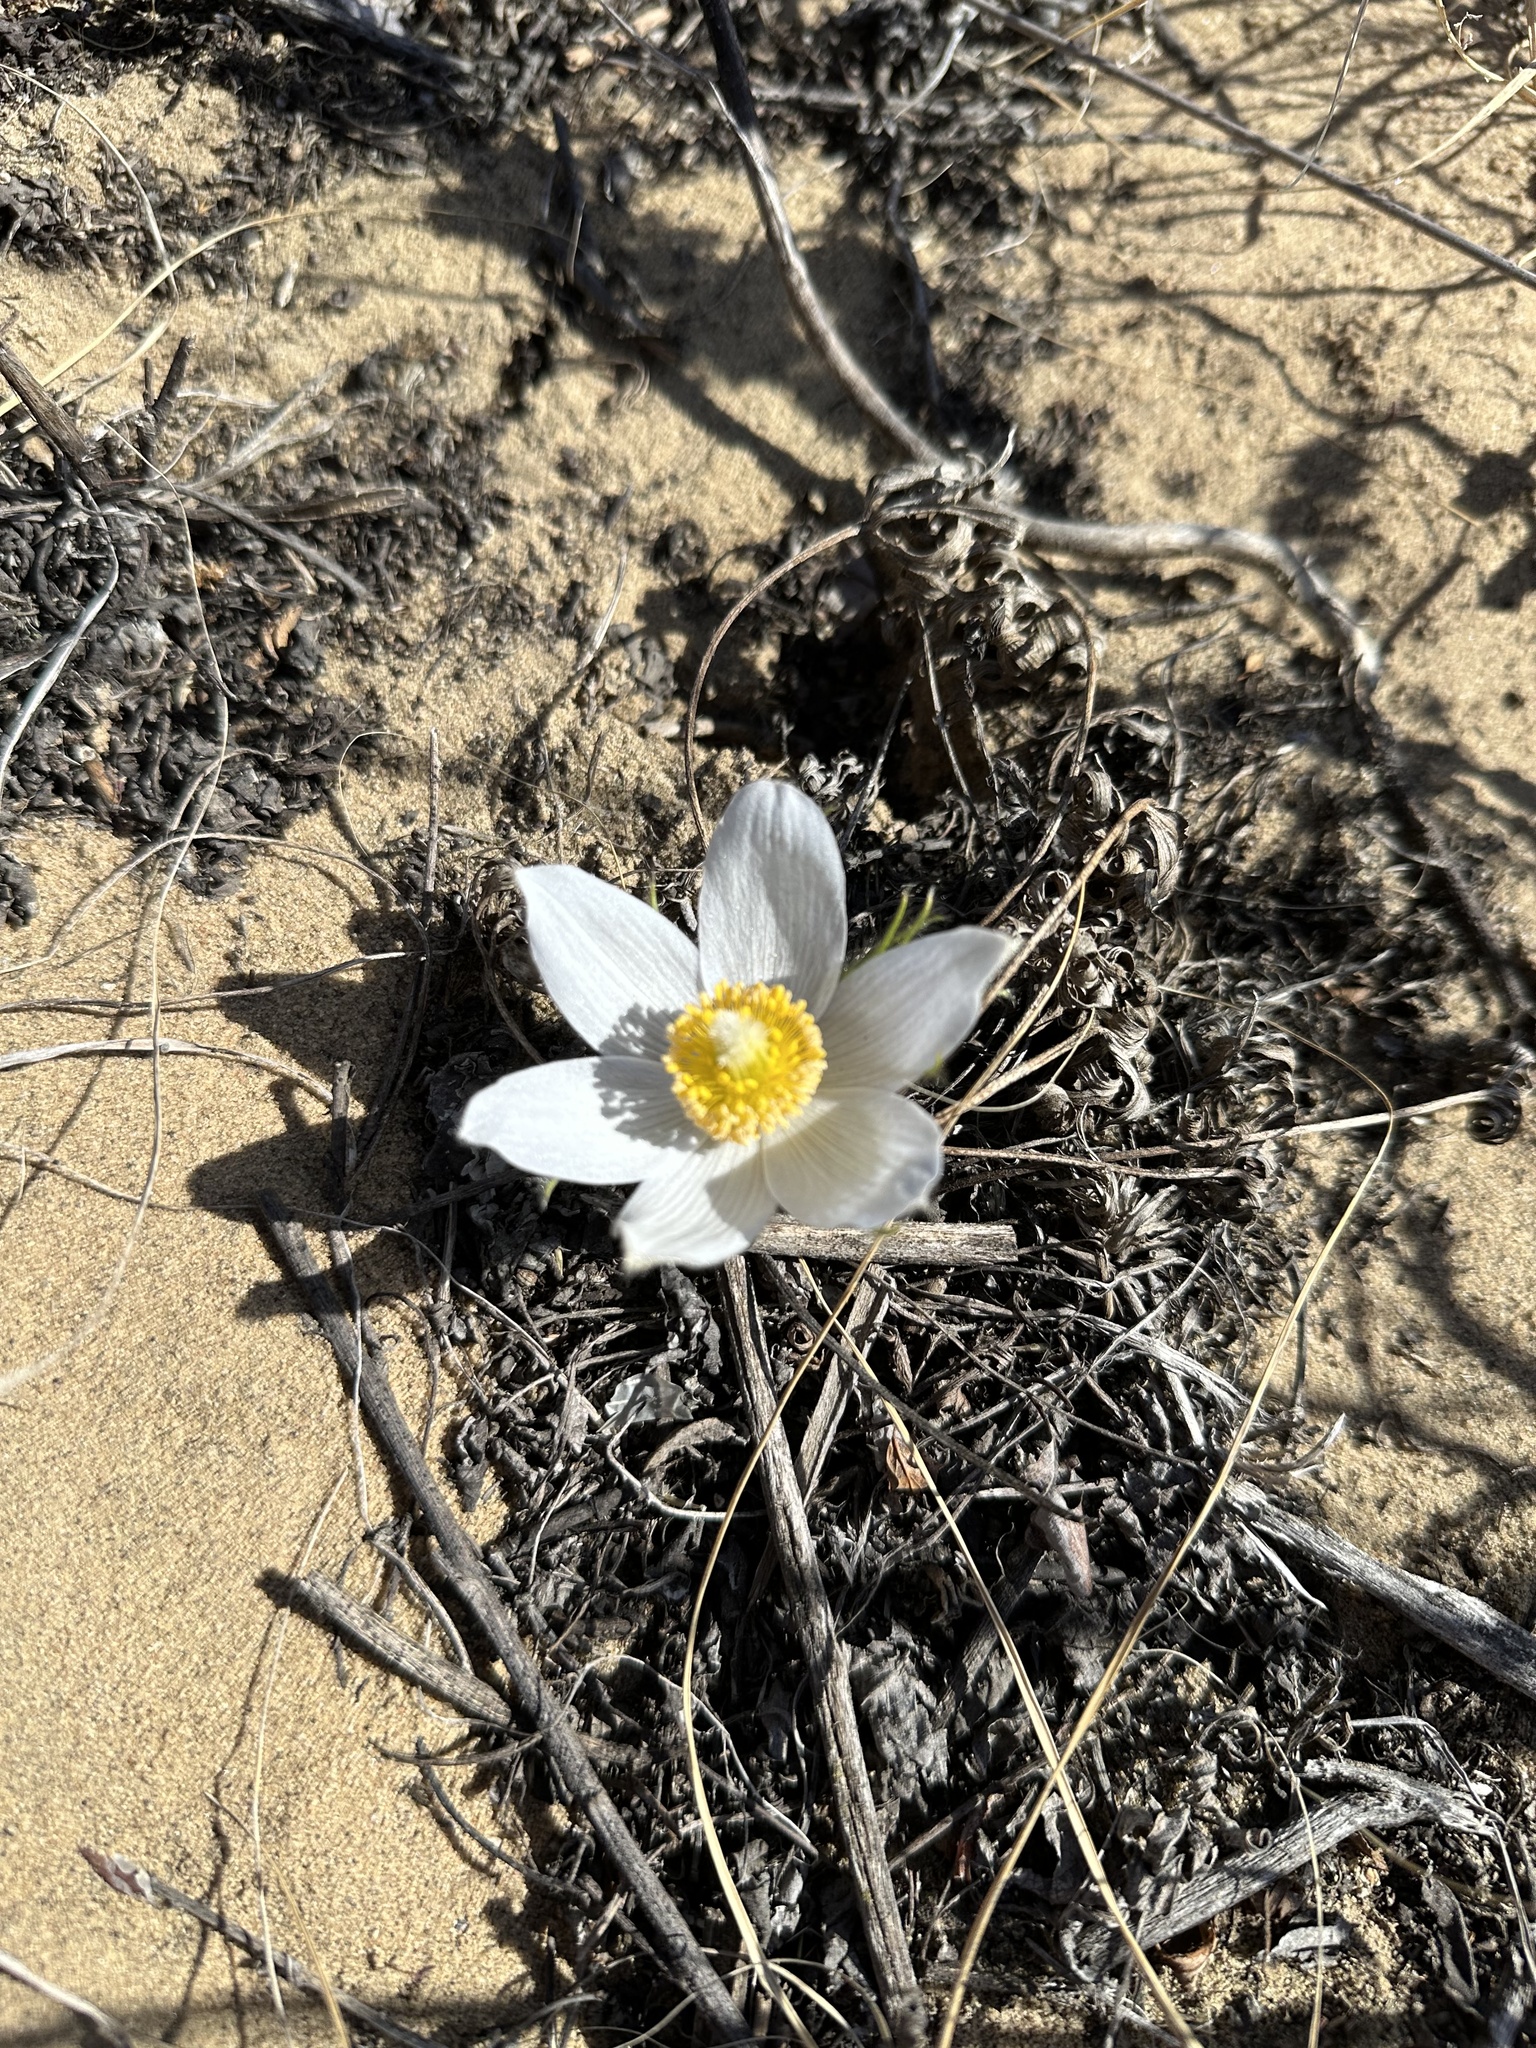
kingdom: Plantae
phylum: Tracheophyta
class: Magnoliopsida
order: Ranunculales
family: Ranunculaceae
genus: Pulsatilla
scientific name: Pulsatilla nuttalliana
